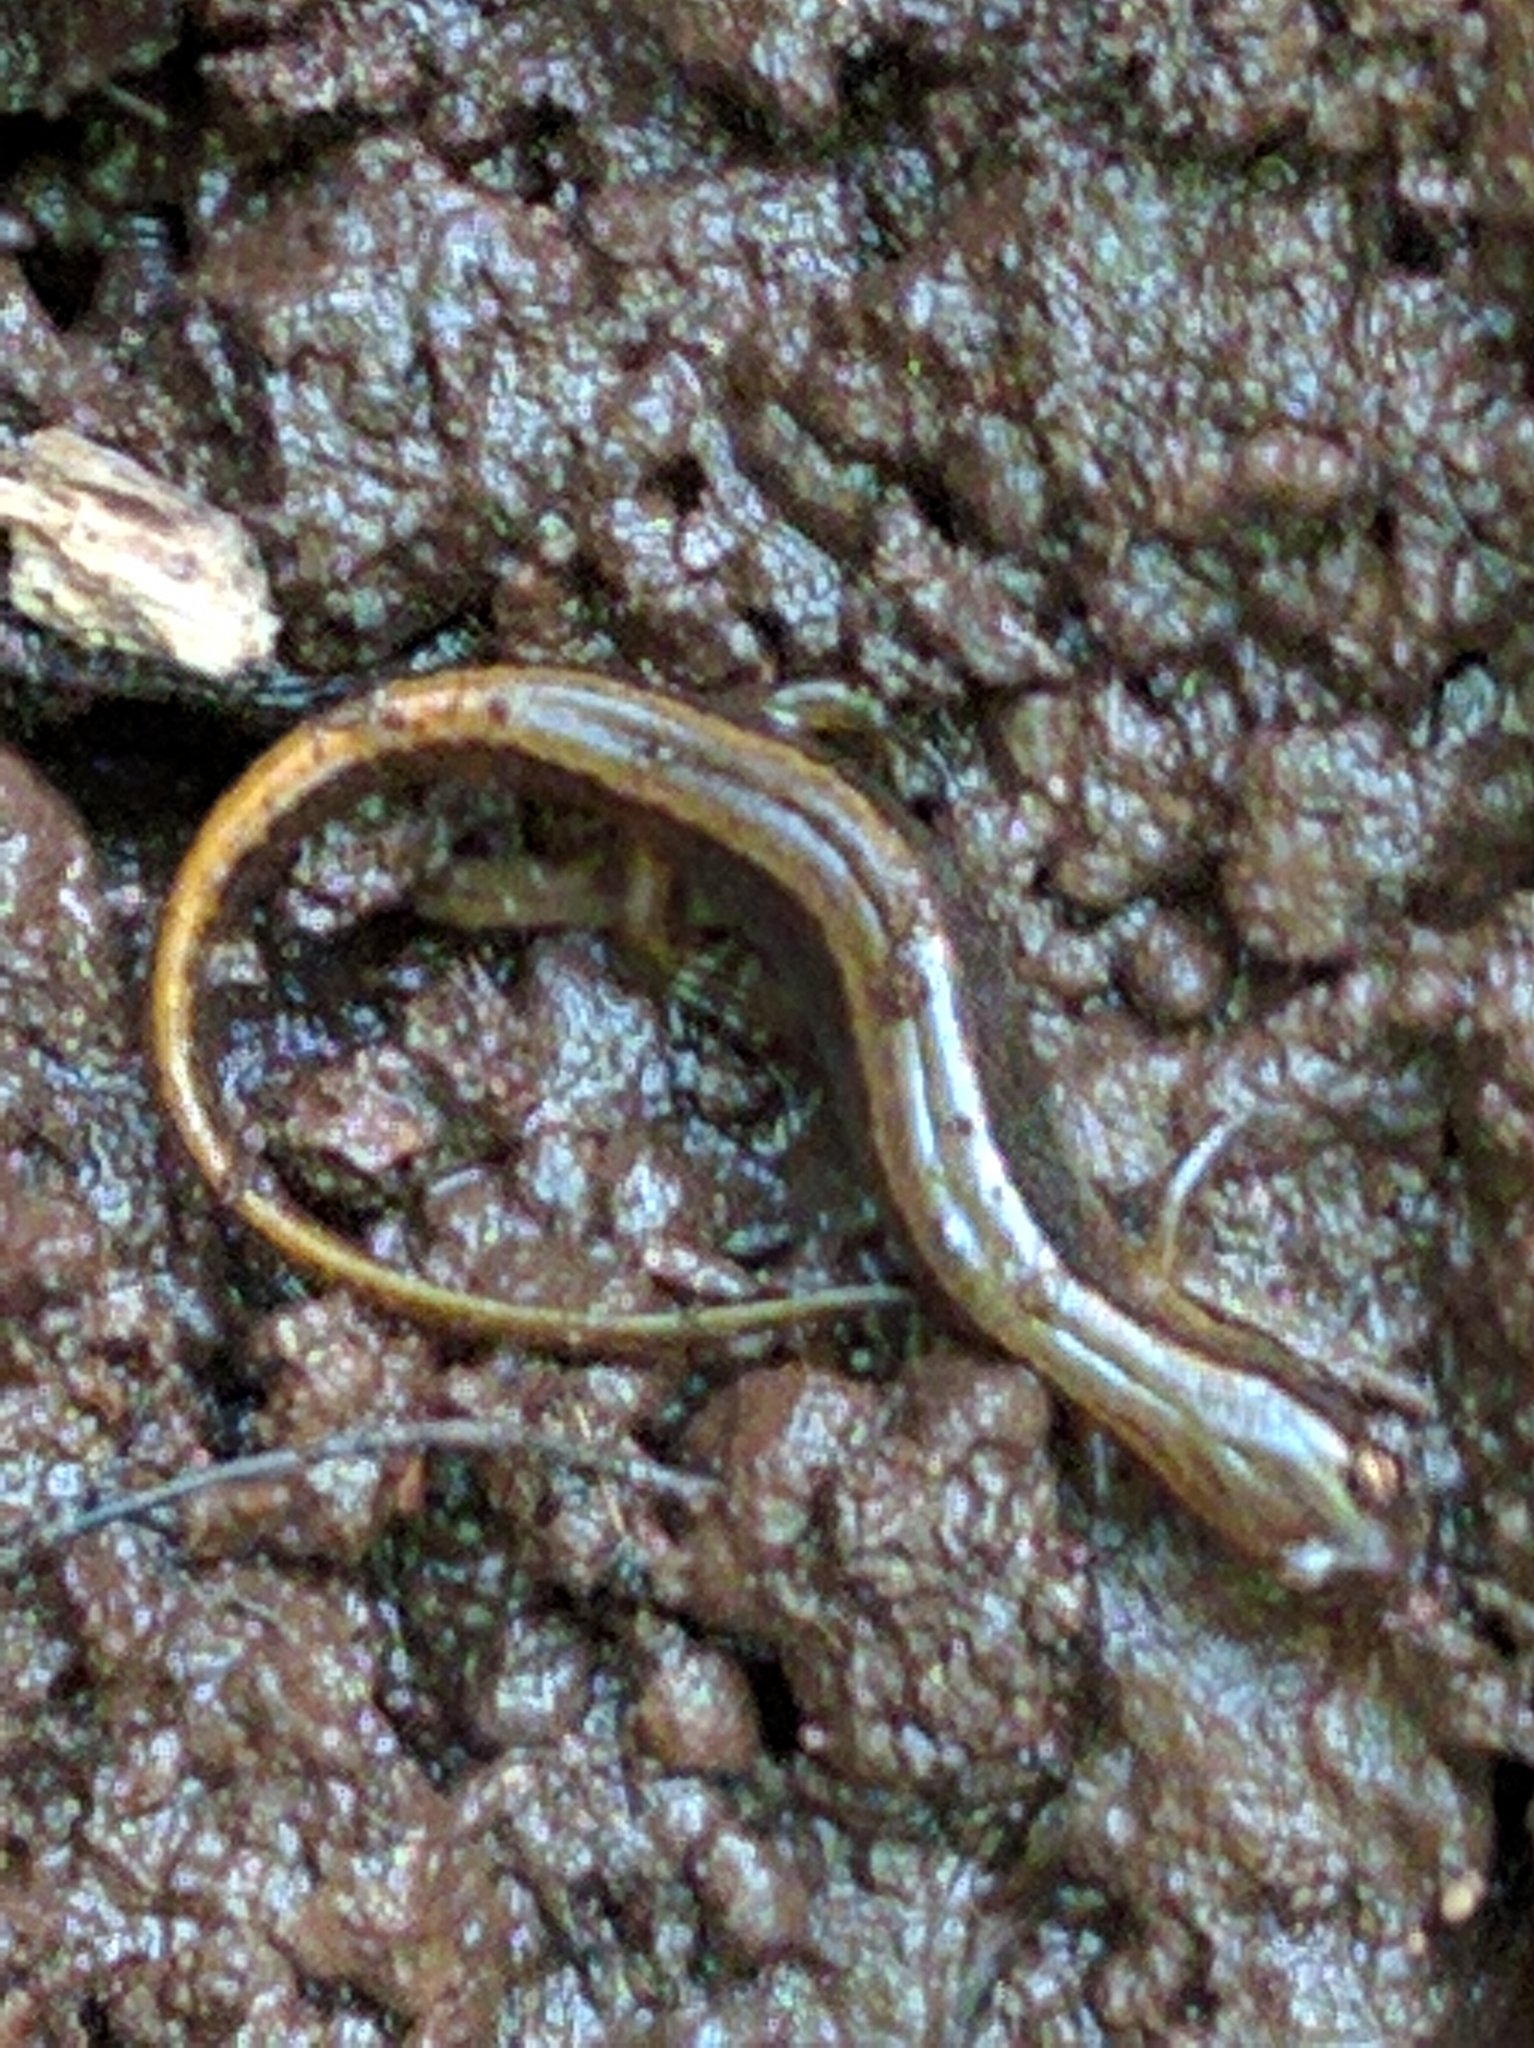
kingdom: Animalia
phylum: Chordata
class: Amphibia
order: Caudata
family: Plethodontidae
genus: Eurycea
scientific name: Eurycea bislineata
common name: Northern two-lined salamander
